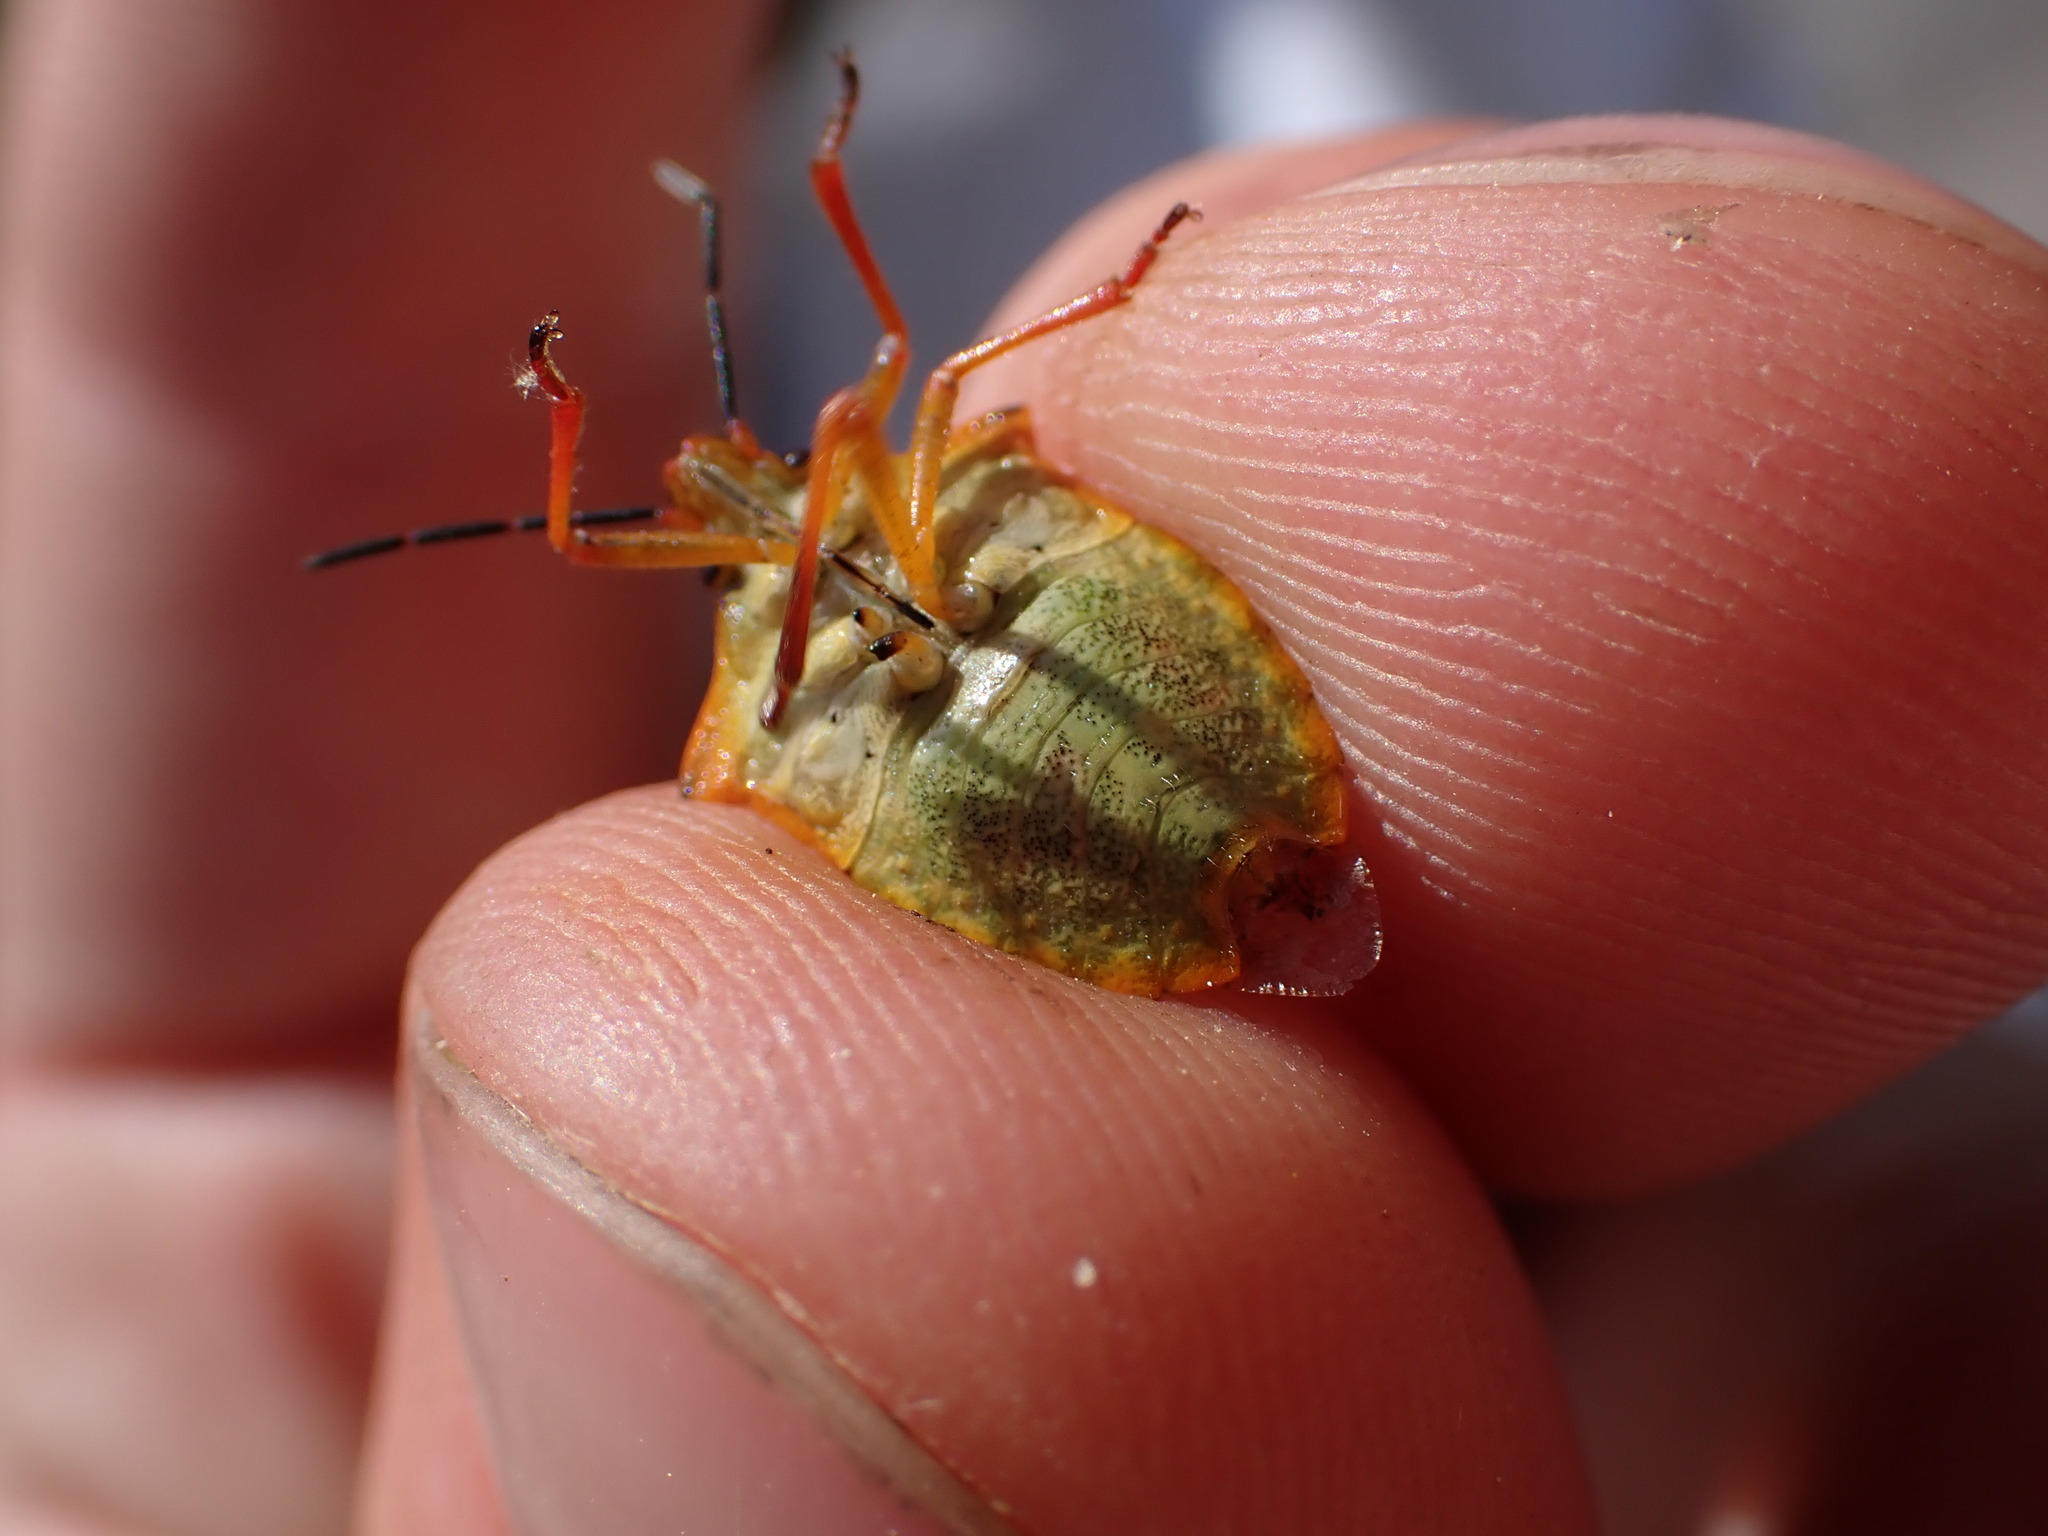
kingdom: Animalia
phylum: Arthropoda
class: Insecta
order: Hemiptera
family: Pentatomidae
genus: Carpocoris
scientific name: Carpocoris mediterraneus
